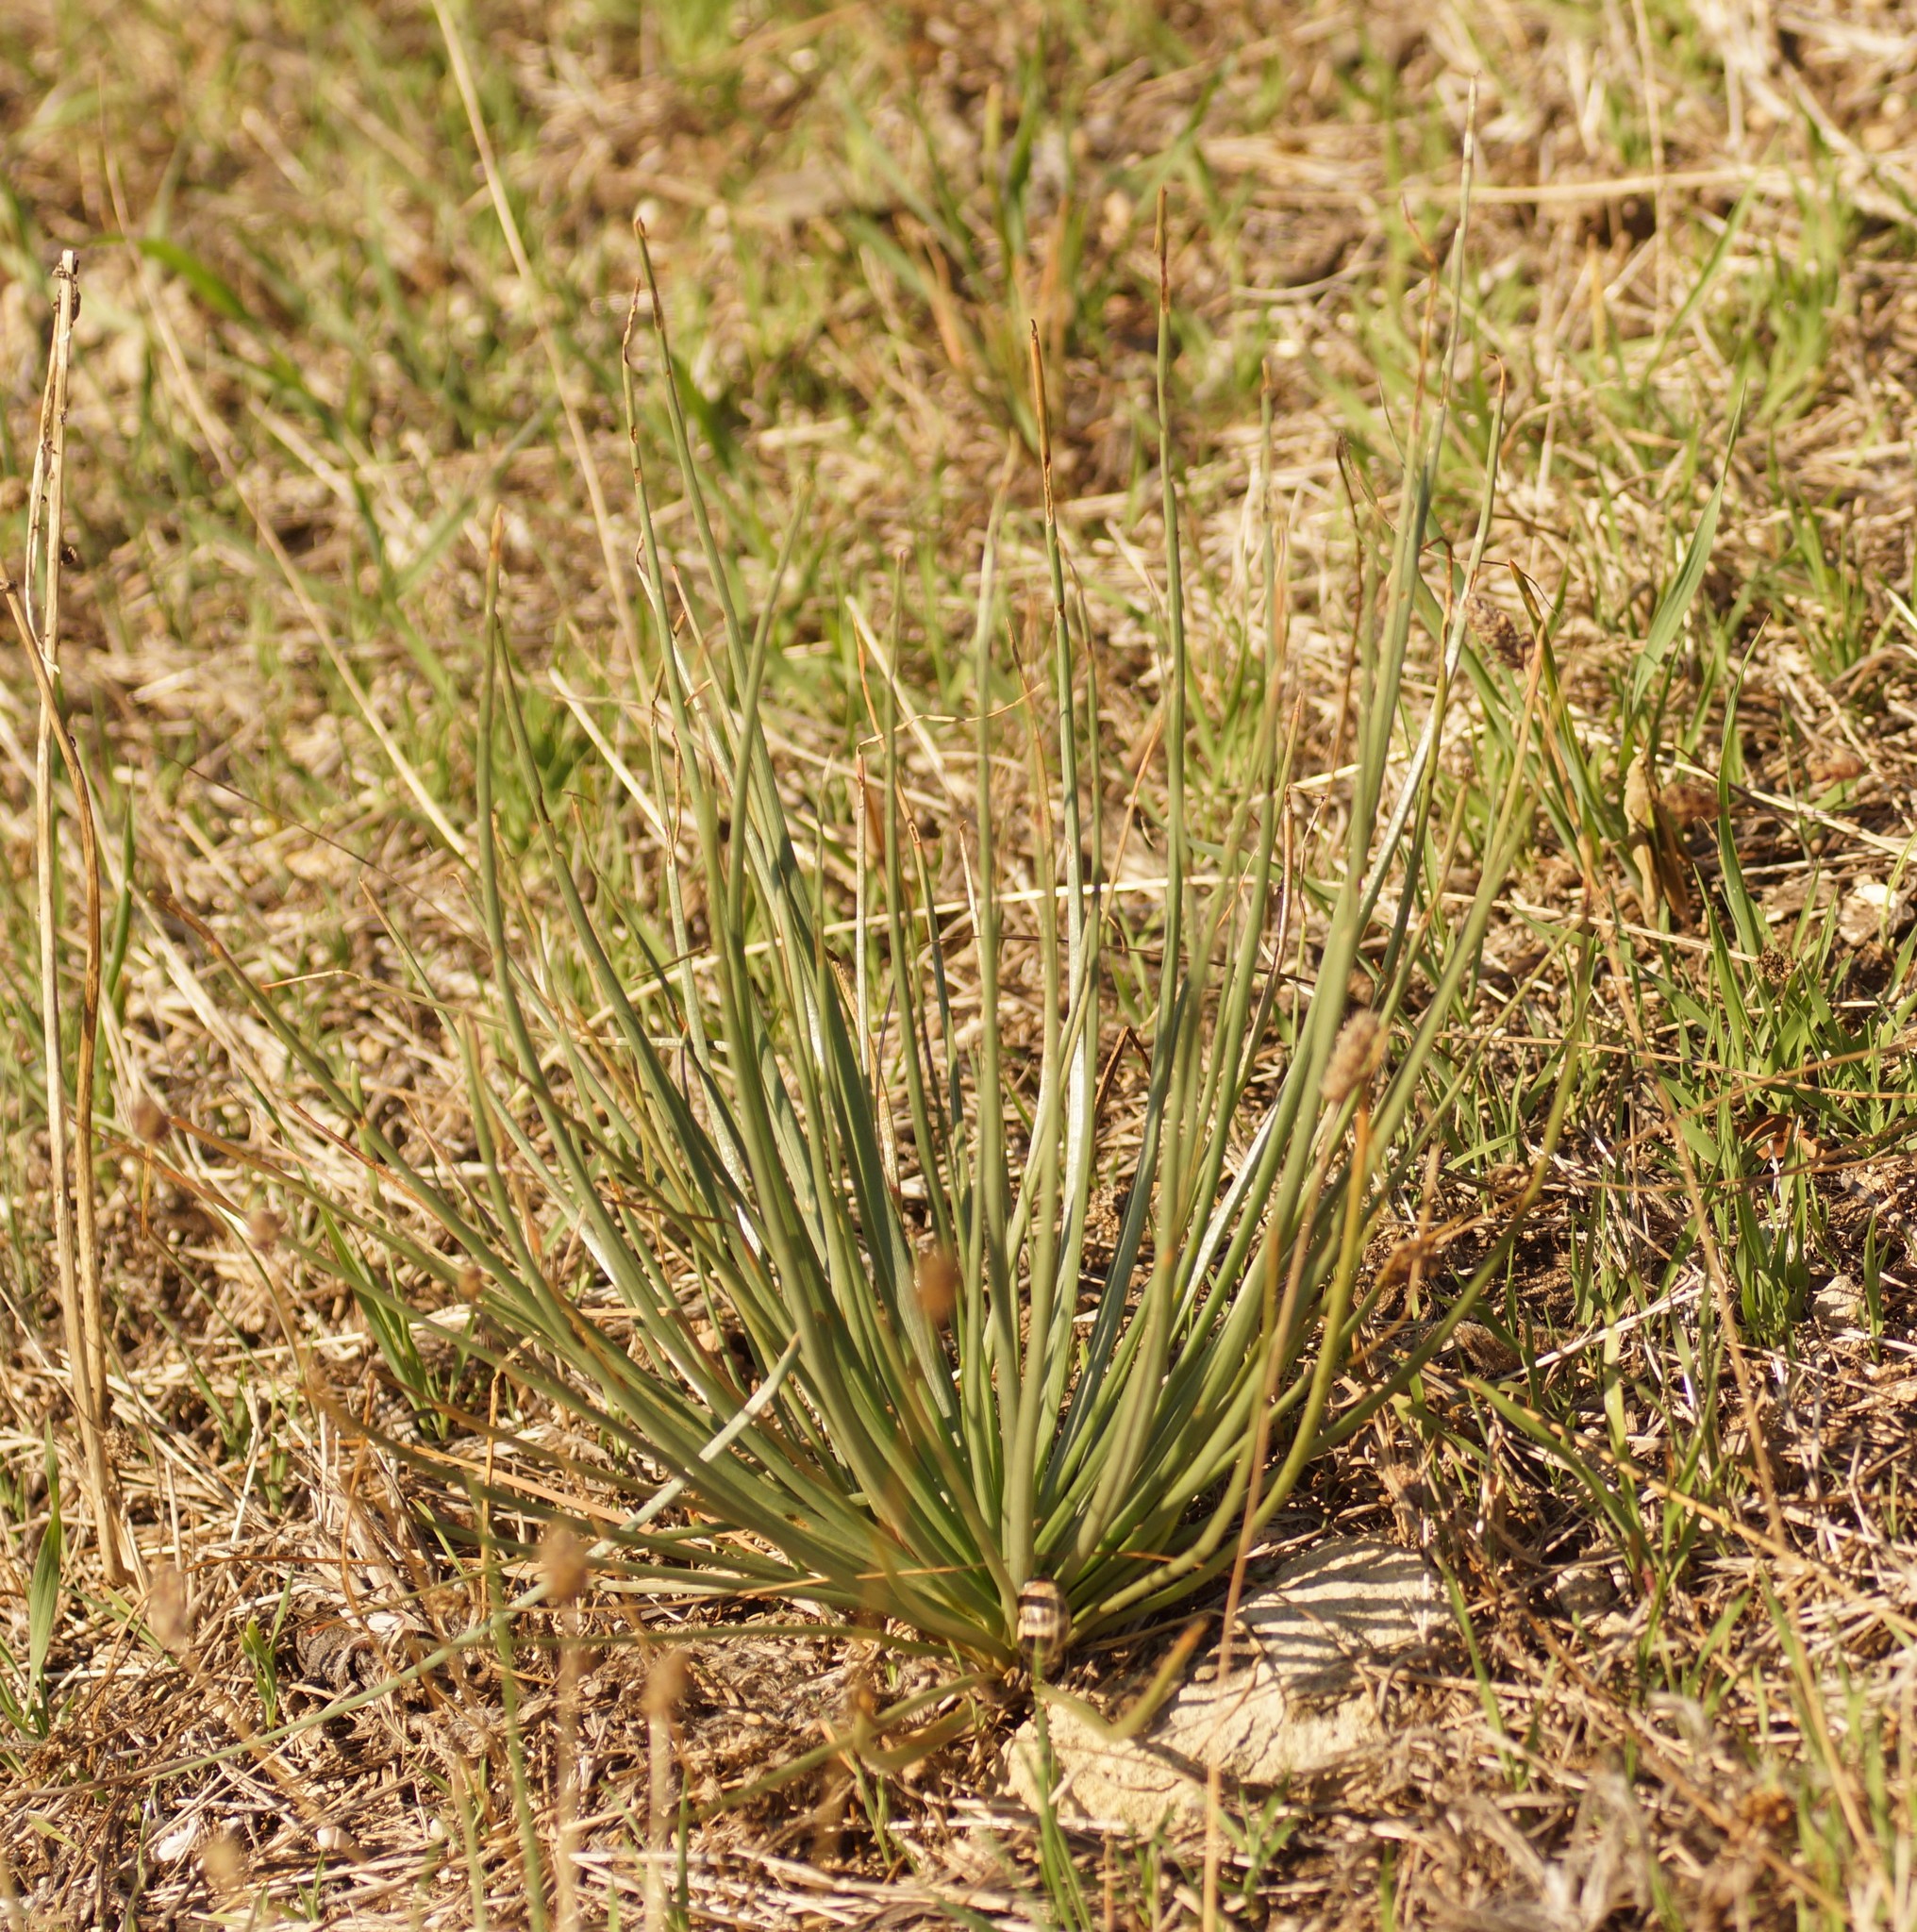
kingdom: Plantae
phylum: Tracheophyta
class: Liliopsida
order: Asparagales
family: Asphodelaceae
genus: Asphodelus
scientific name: Asphodelus fistulosus
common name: Onionweed
